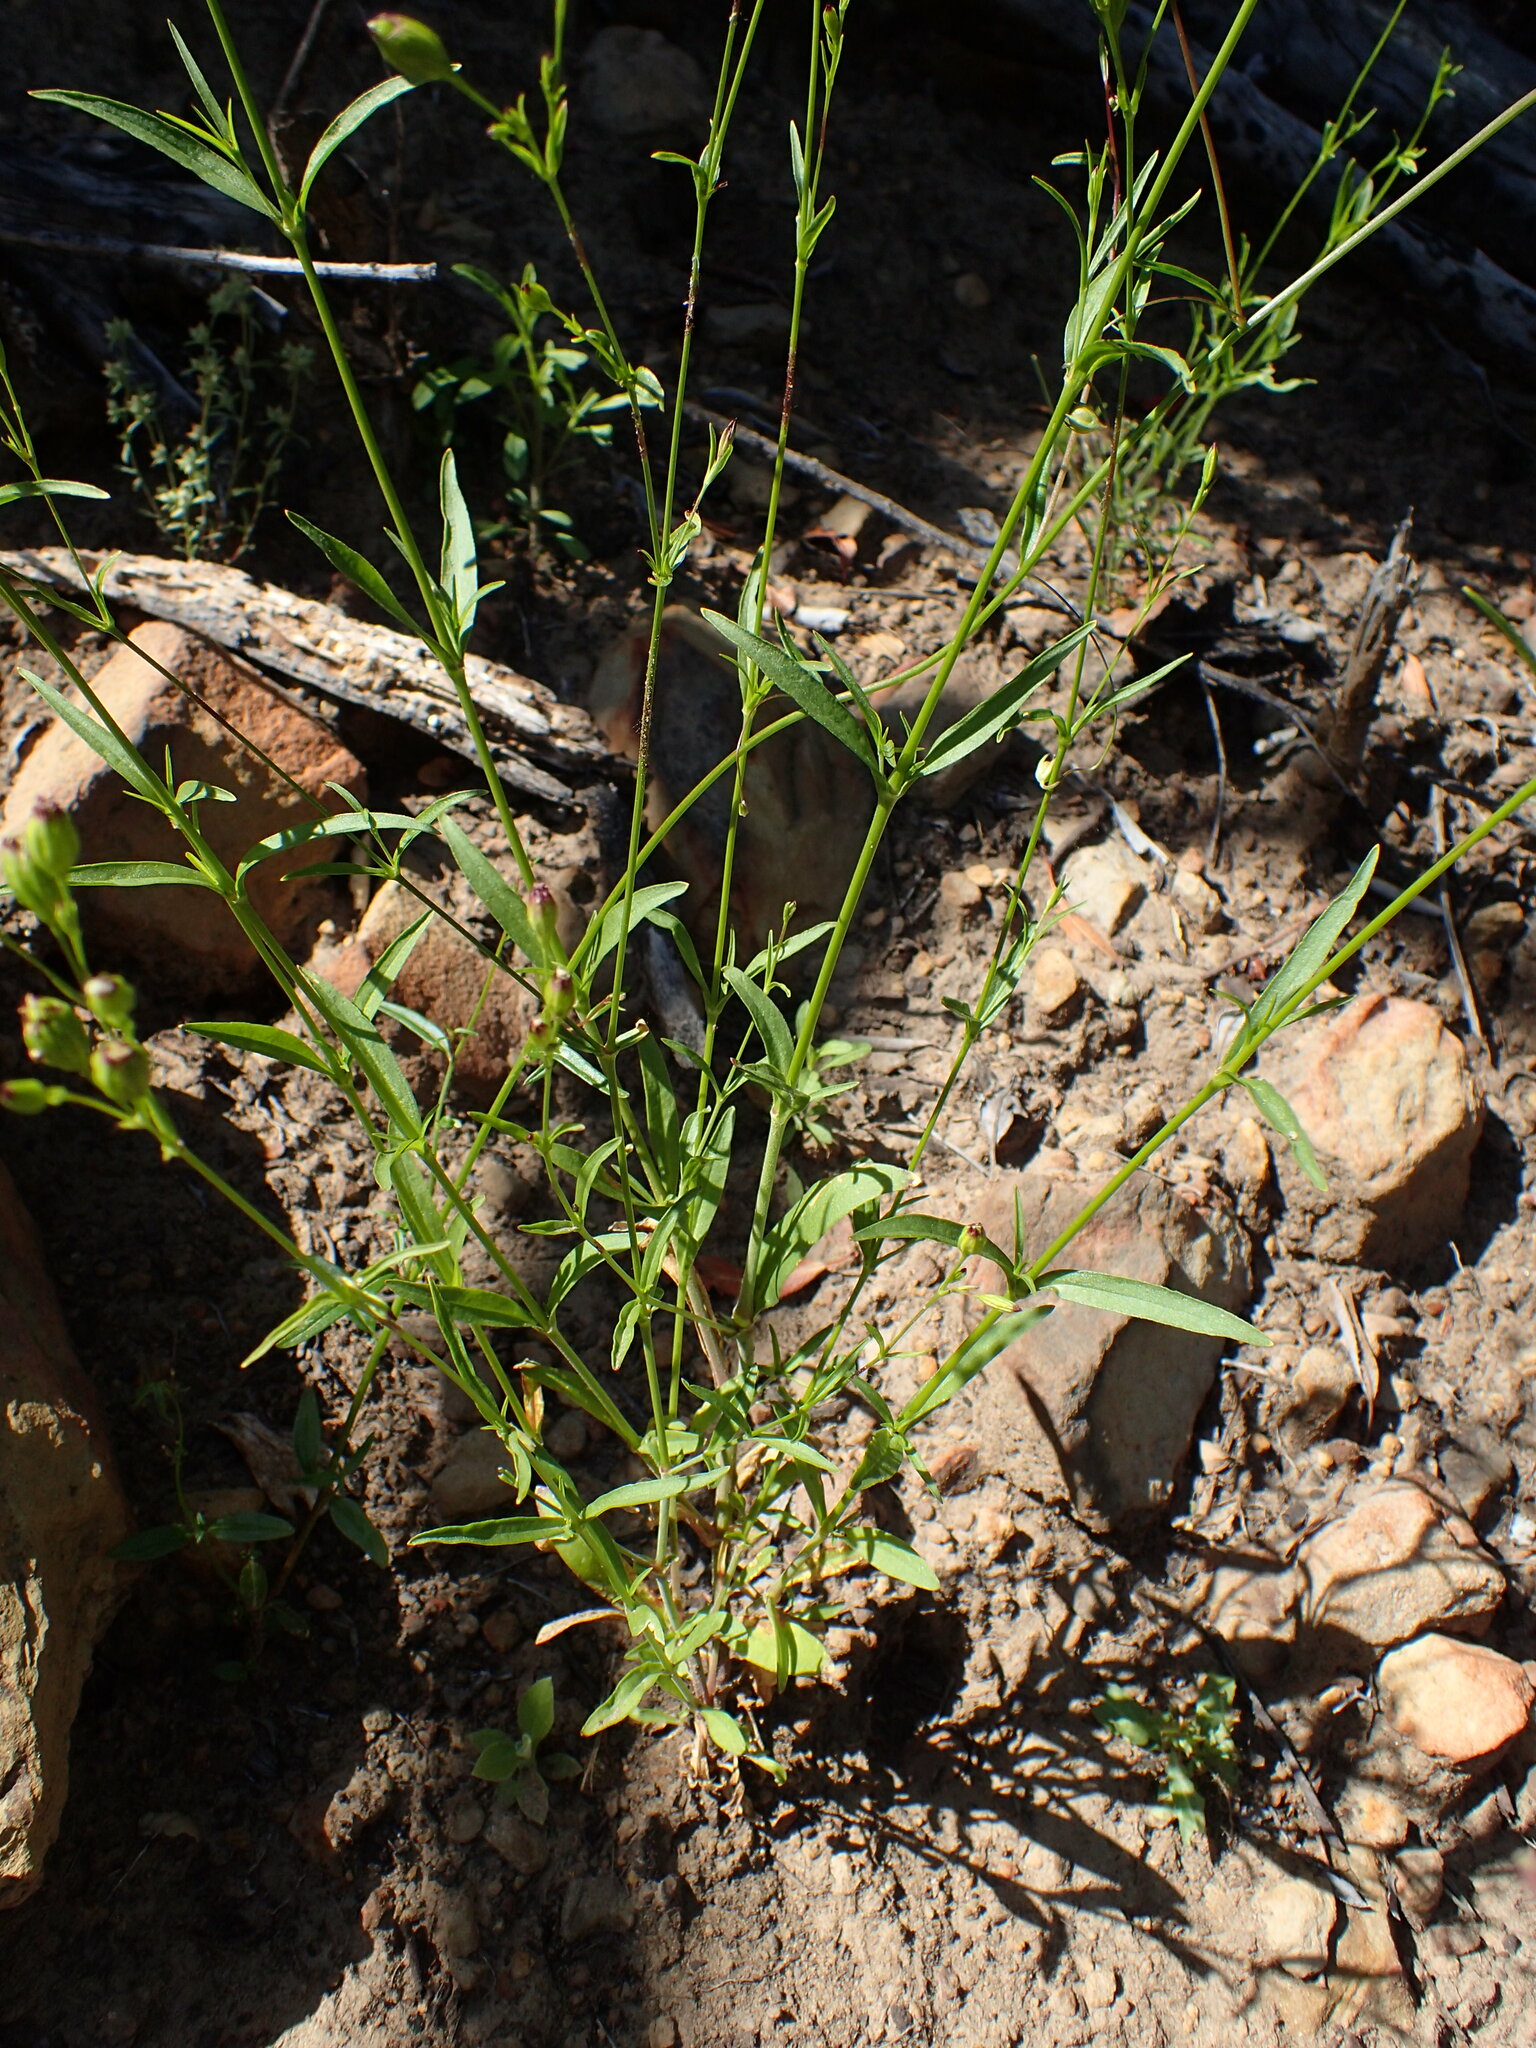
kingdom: Plantae
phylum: Tracheophyta
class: Magnoliopsida
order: Caryophyllales
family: Caryophyllaceae
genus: Silene
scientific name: Silene antirrhina
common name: Sleepy catchfly
